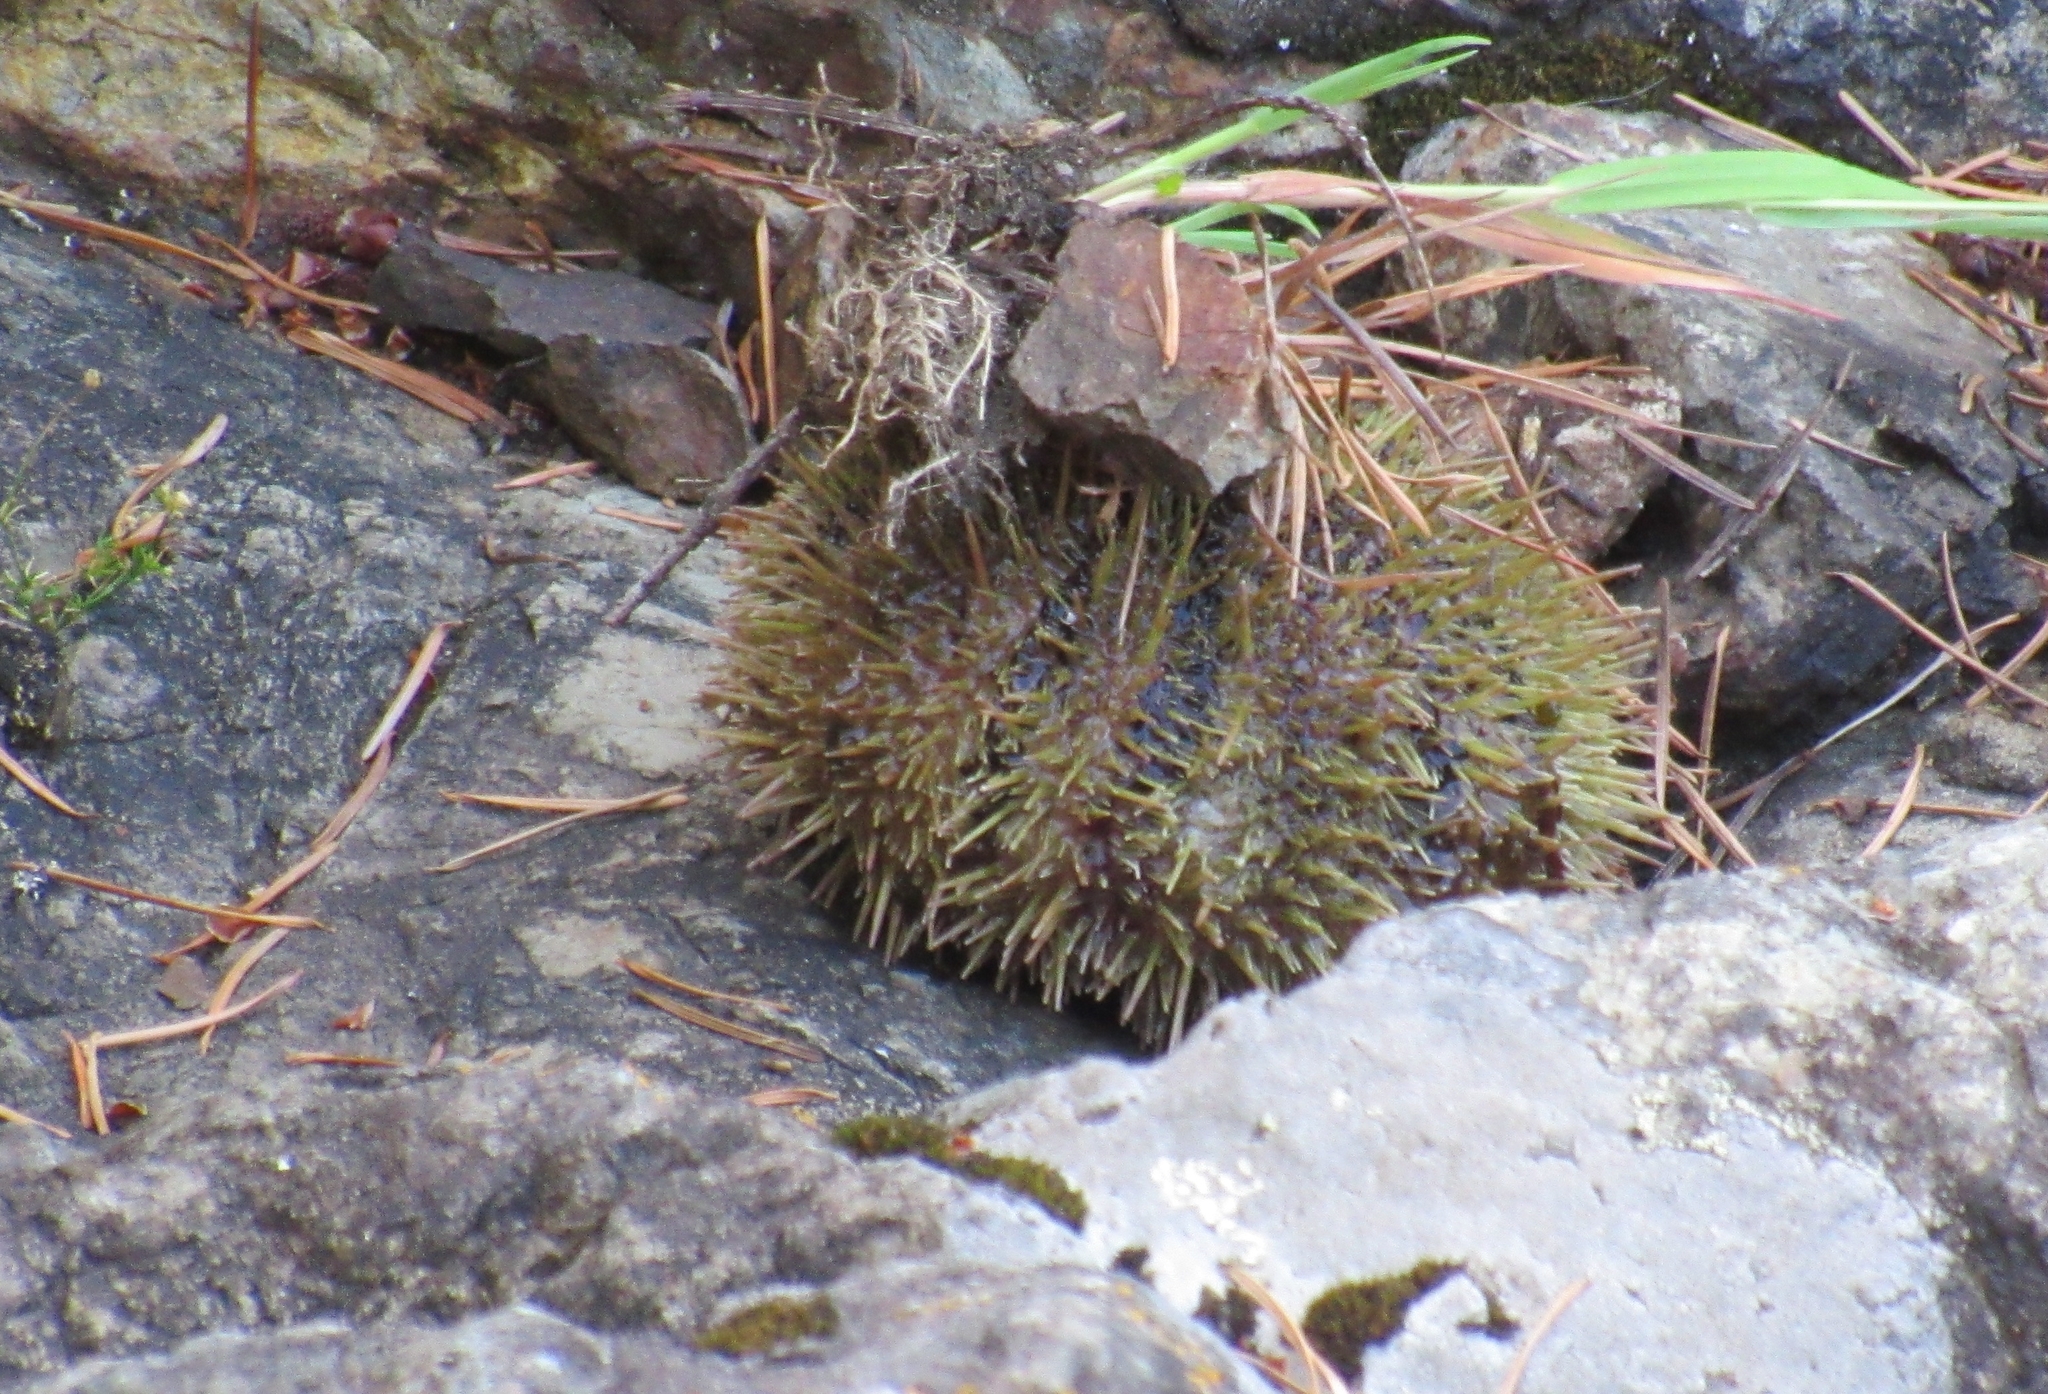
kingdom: Animalia
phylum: Echinodermata
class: Echinoidea
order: Camarodonta
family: Strongylocentrotidae
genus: Strongylocentrotus
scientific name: Strongylocentrotus droebachiensis
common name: Northern sea urchin
